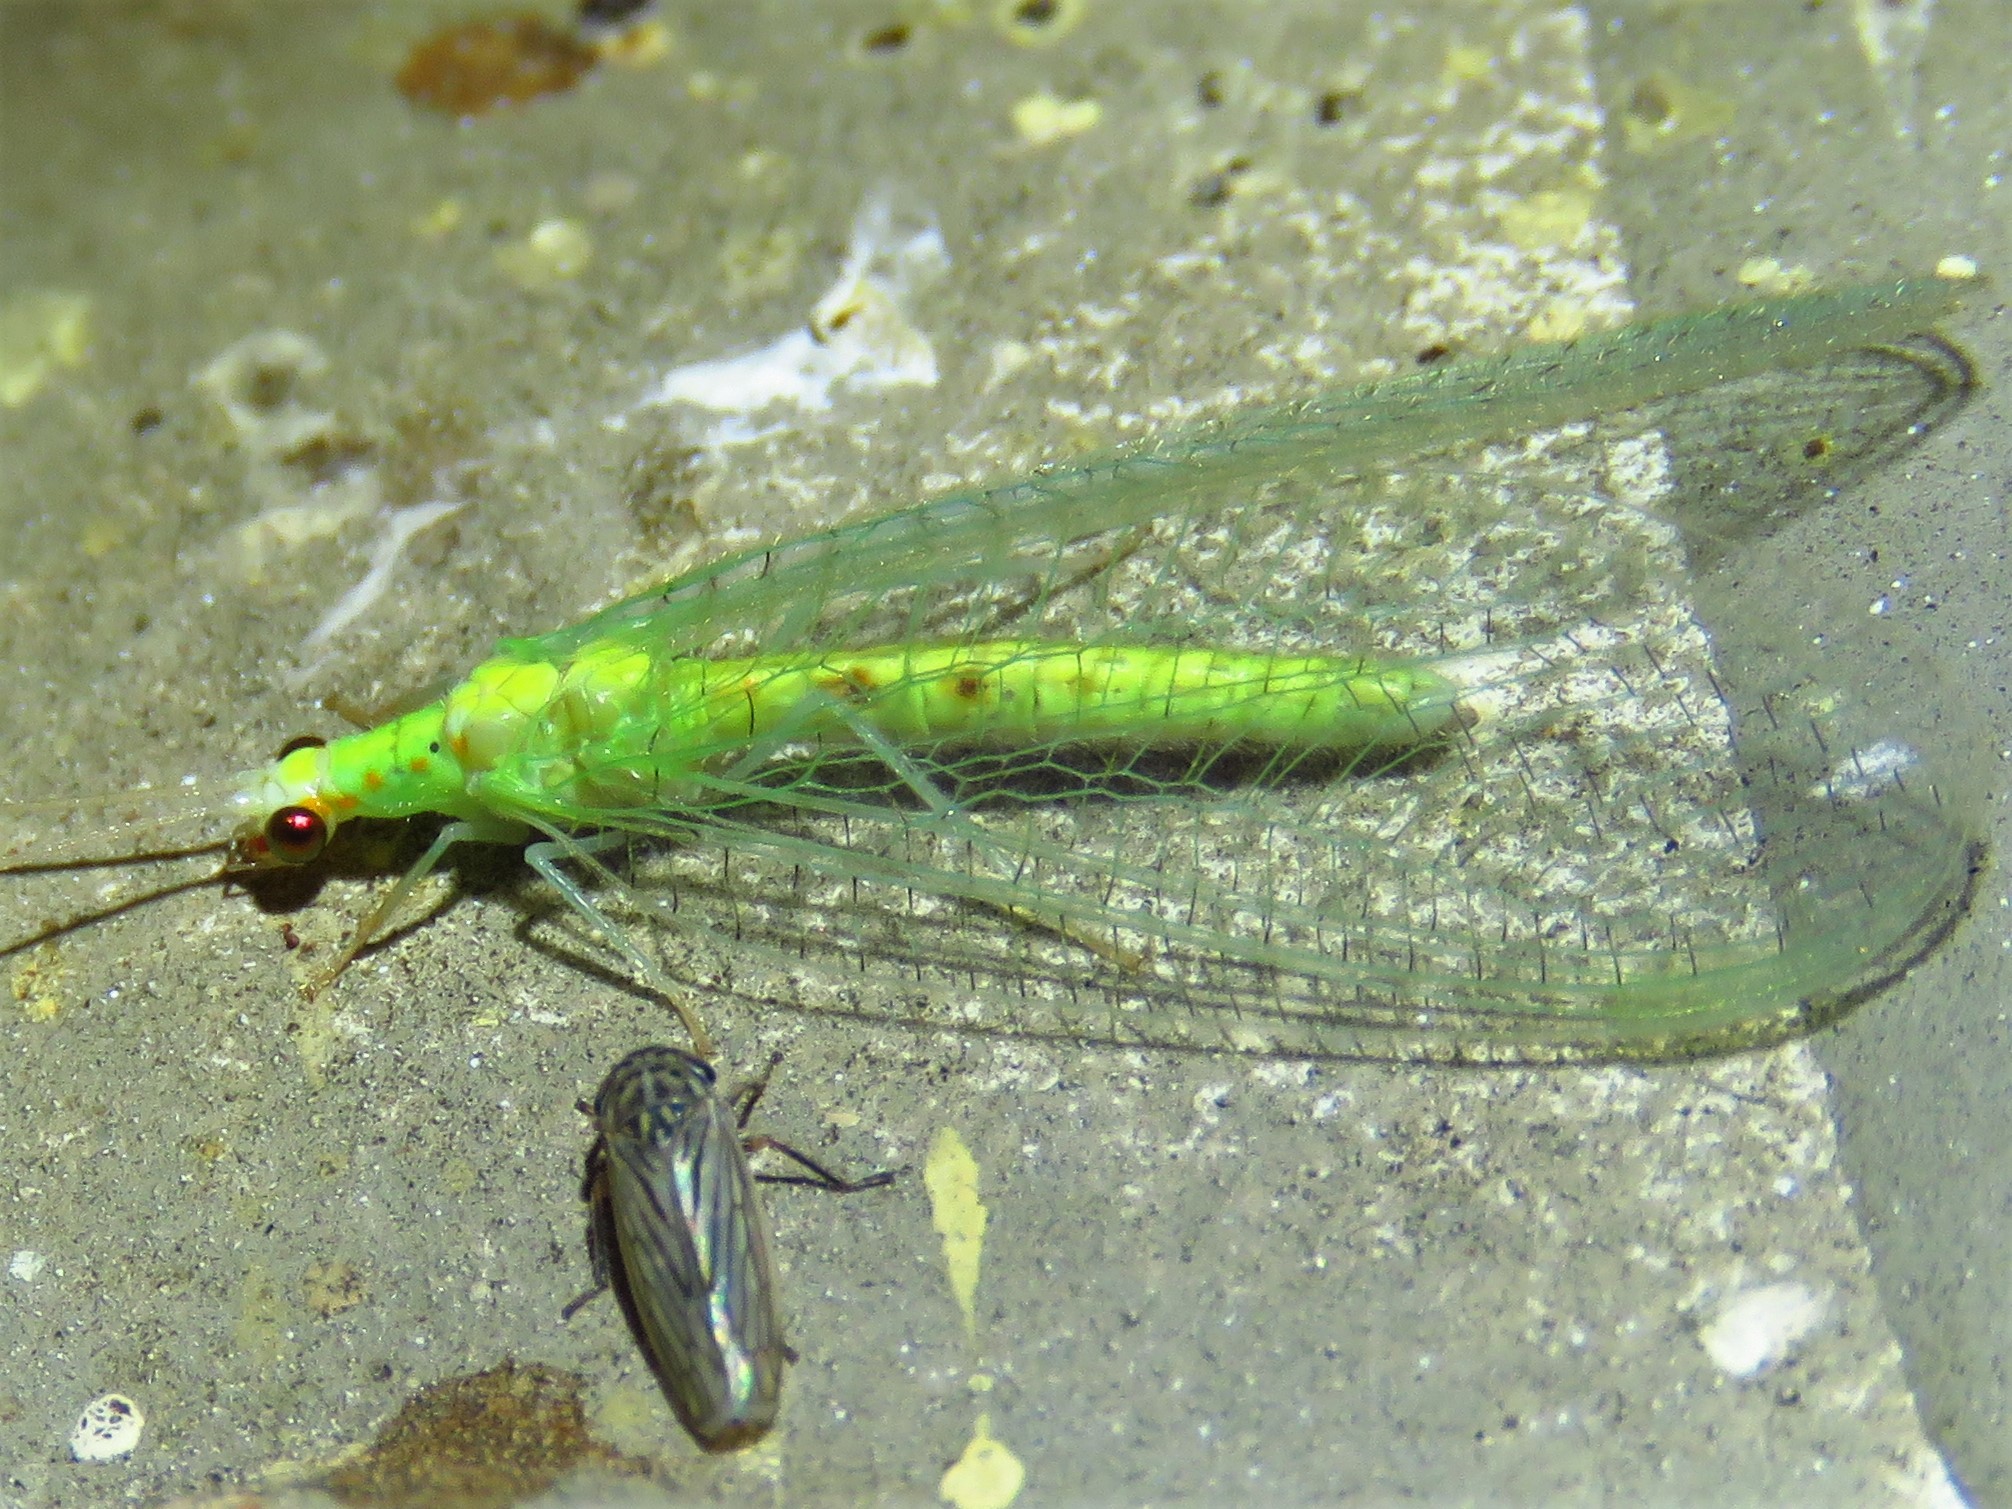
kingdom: Animalia
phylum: Arthropoda
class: Insecta
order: Neuroptera
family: Chrysopidae
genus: Chrysopa
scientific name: Chrysopa quadripunctata
